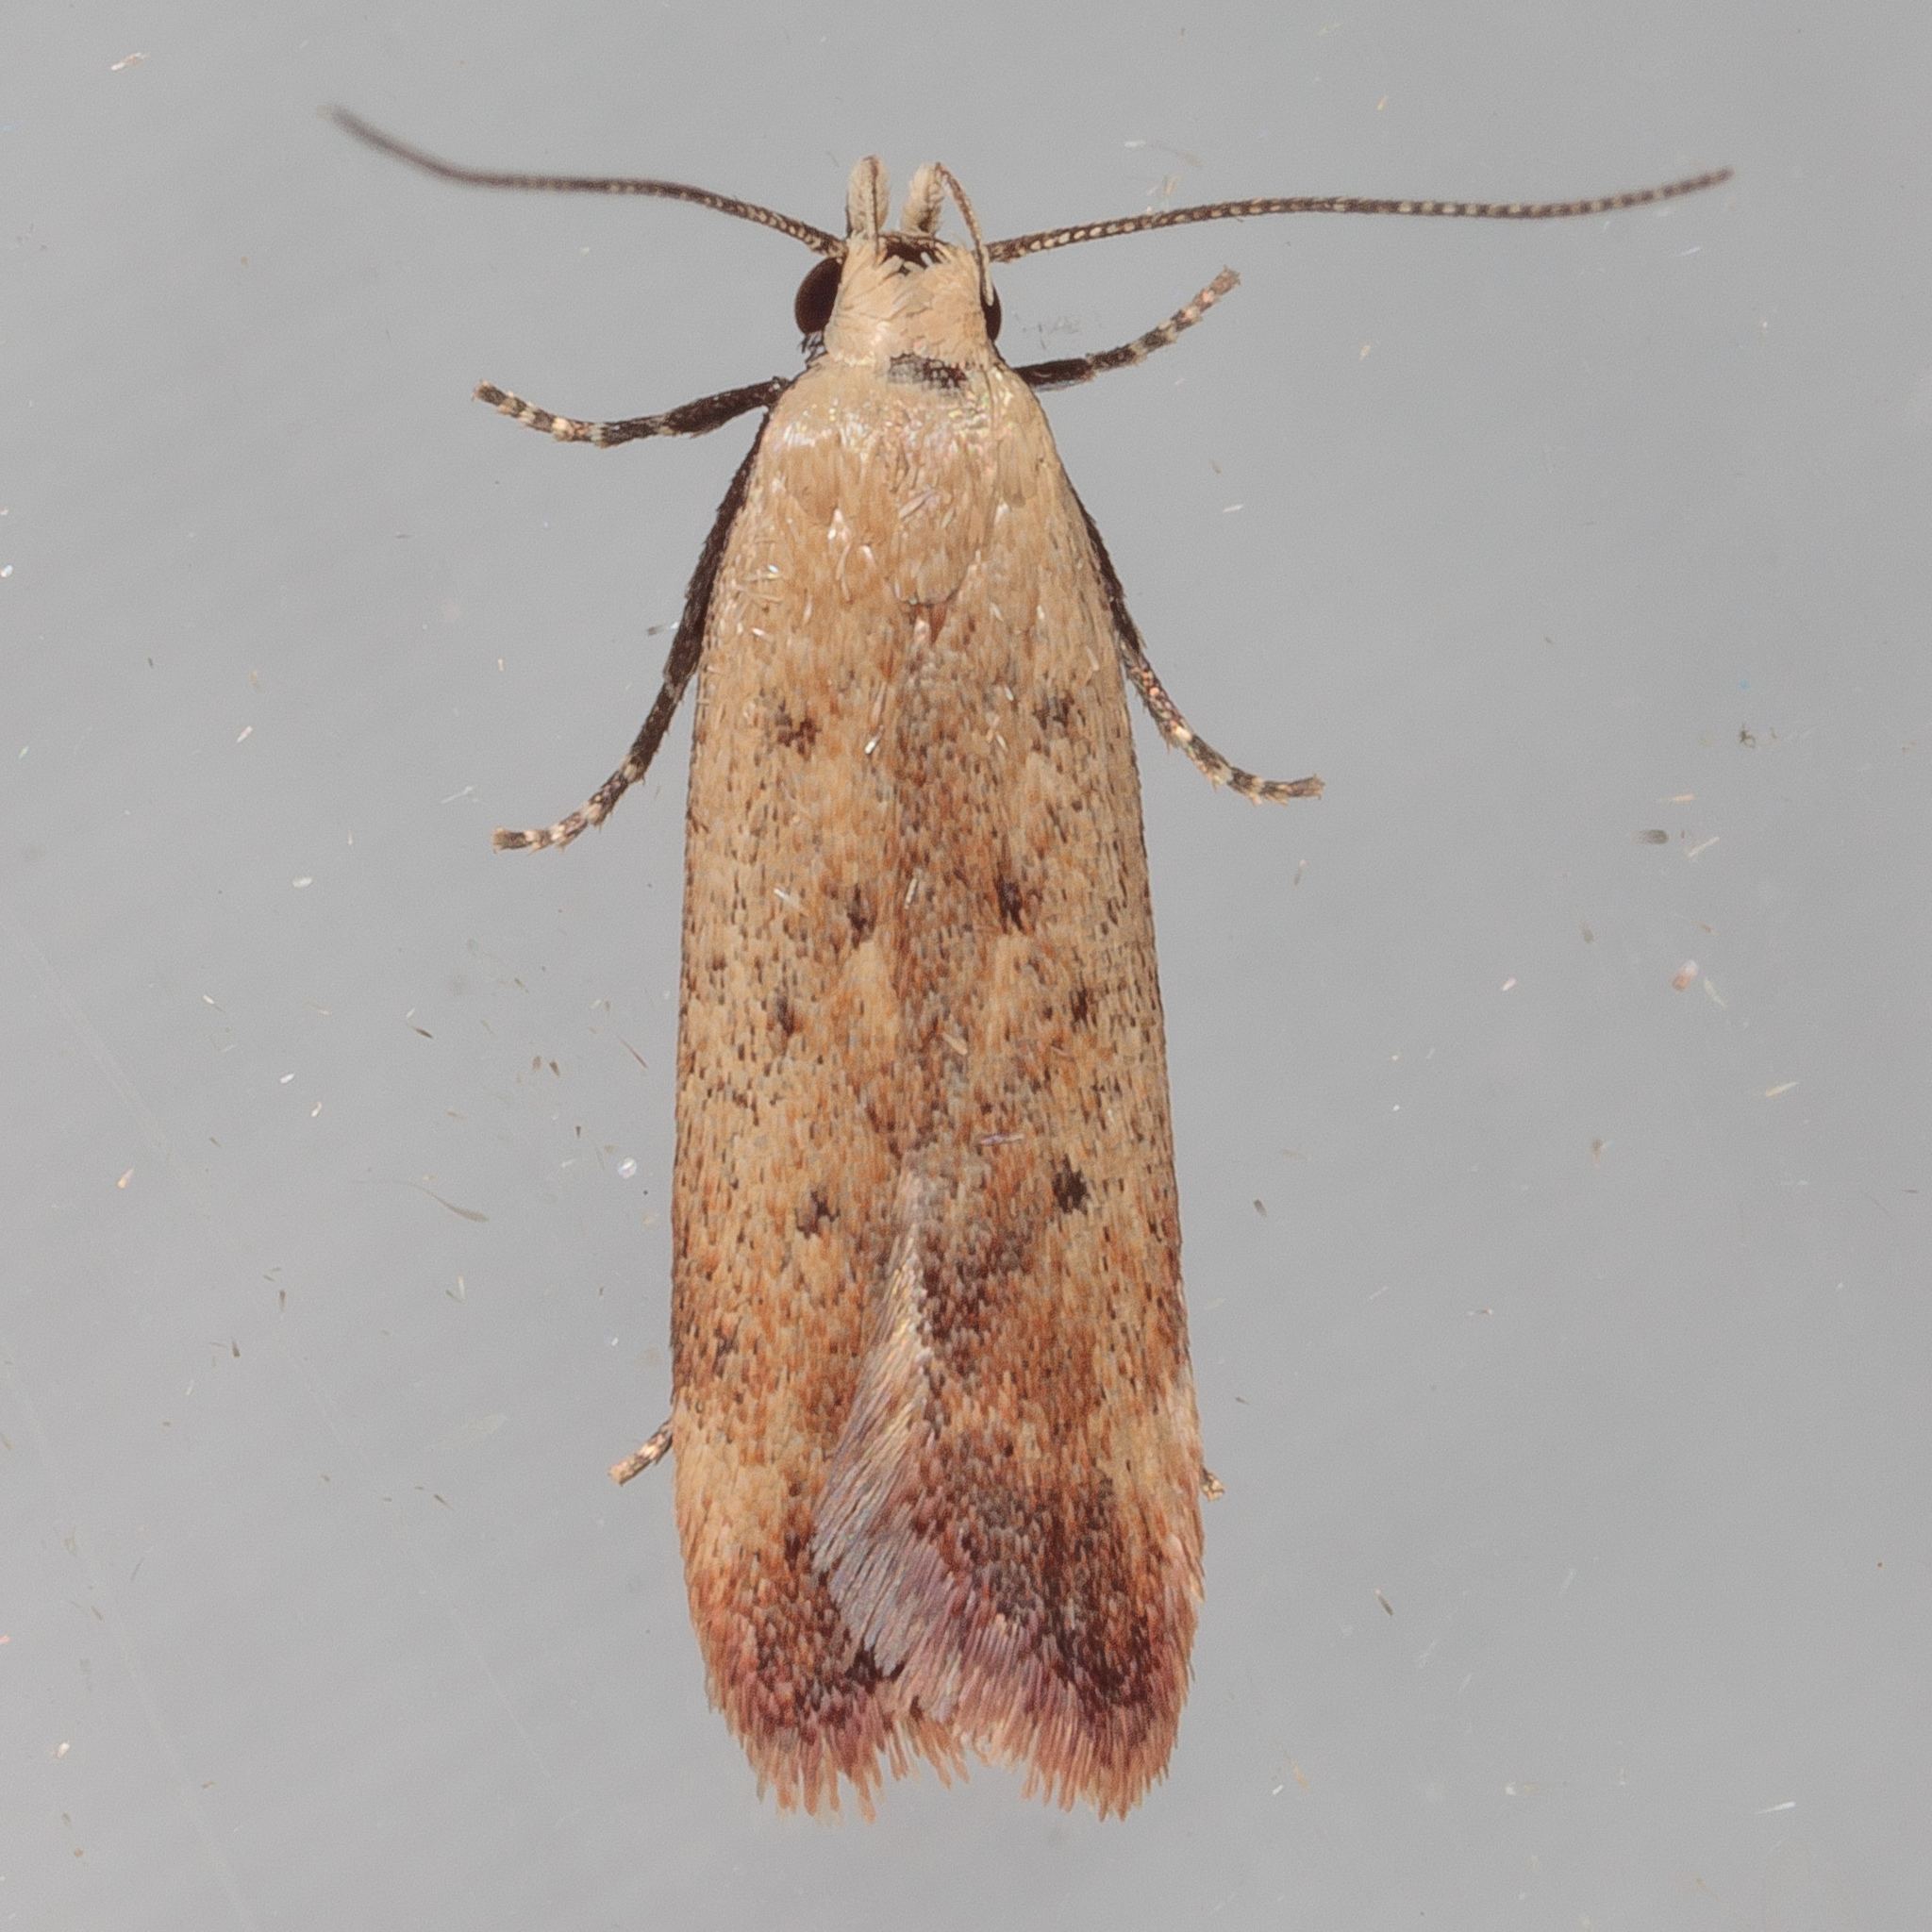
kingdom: Animalia
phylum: Arthropoda
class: Insecta
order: Lepidoptera
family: Gelechiidae
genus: Anacampsis
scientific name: Anacampsis fullonella
